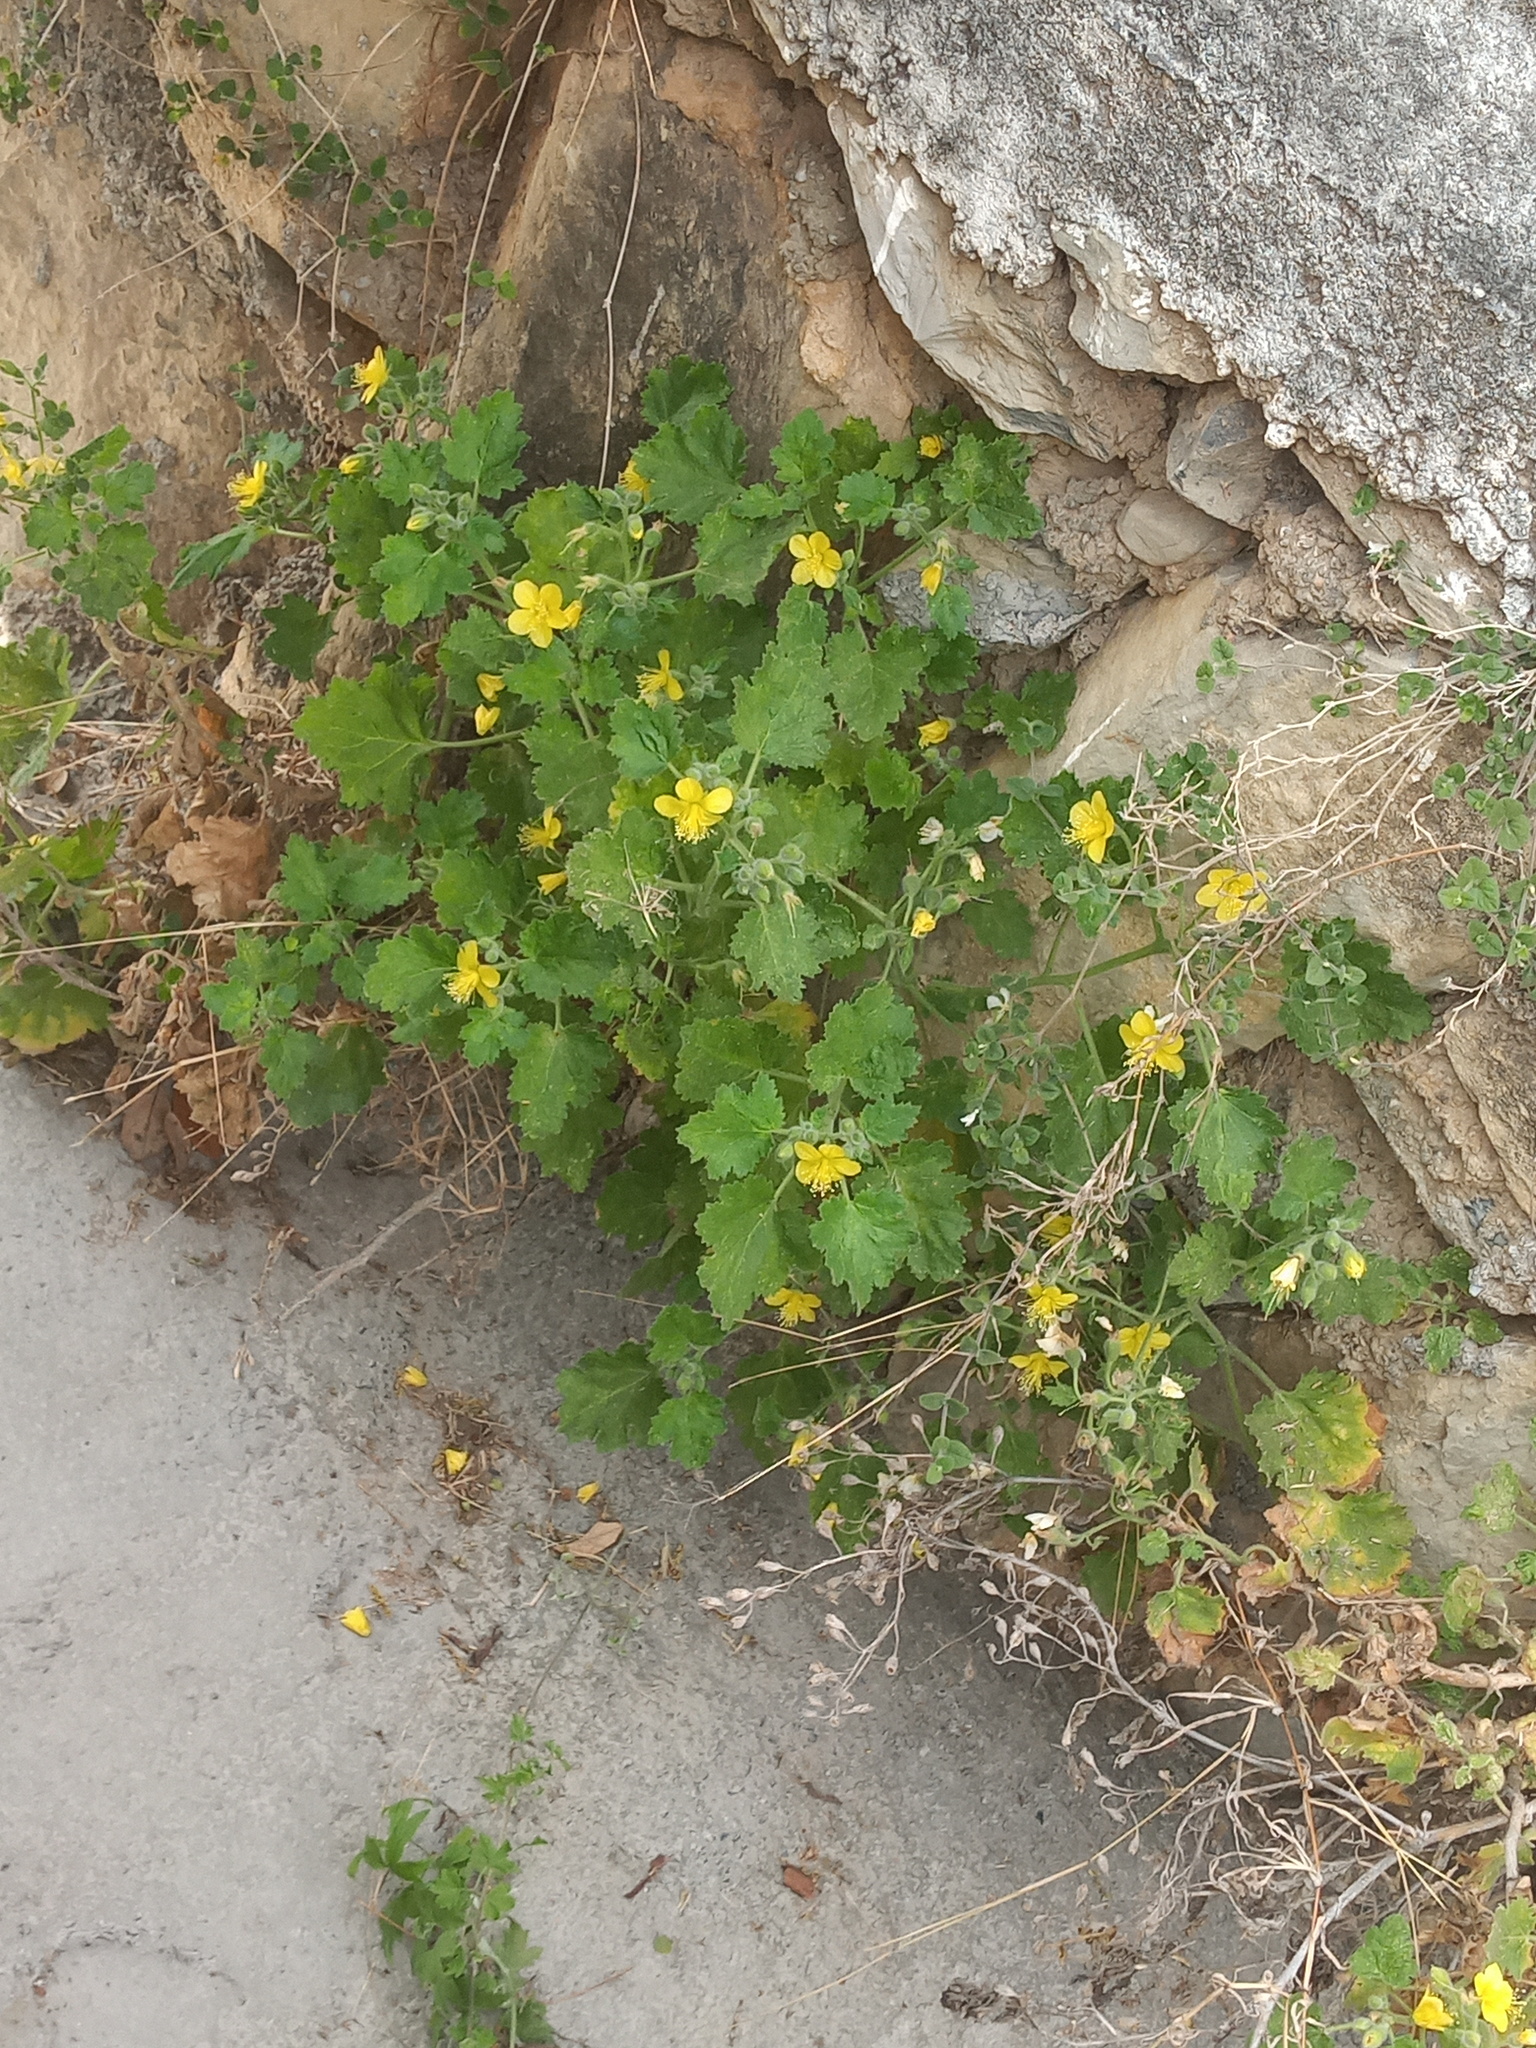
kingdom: Plantae
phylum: Tracheophyta
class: Magnoliopsida
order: Cornales
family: Loasaceae
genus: Eucnide
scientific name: Eucnide lobata
